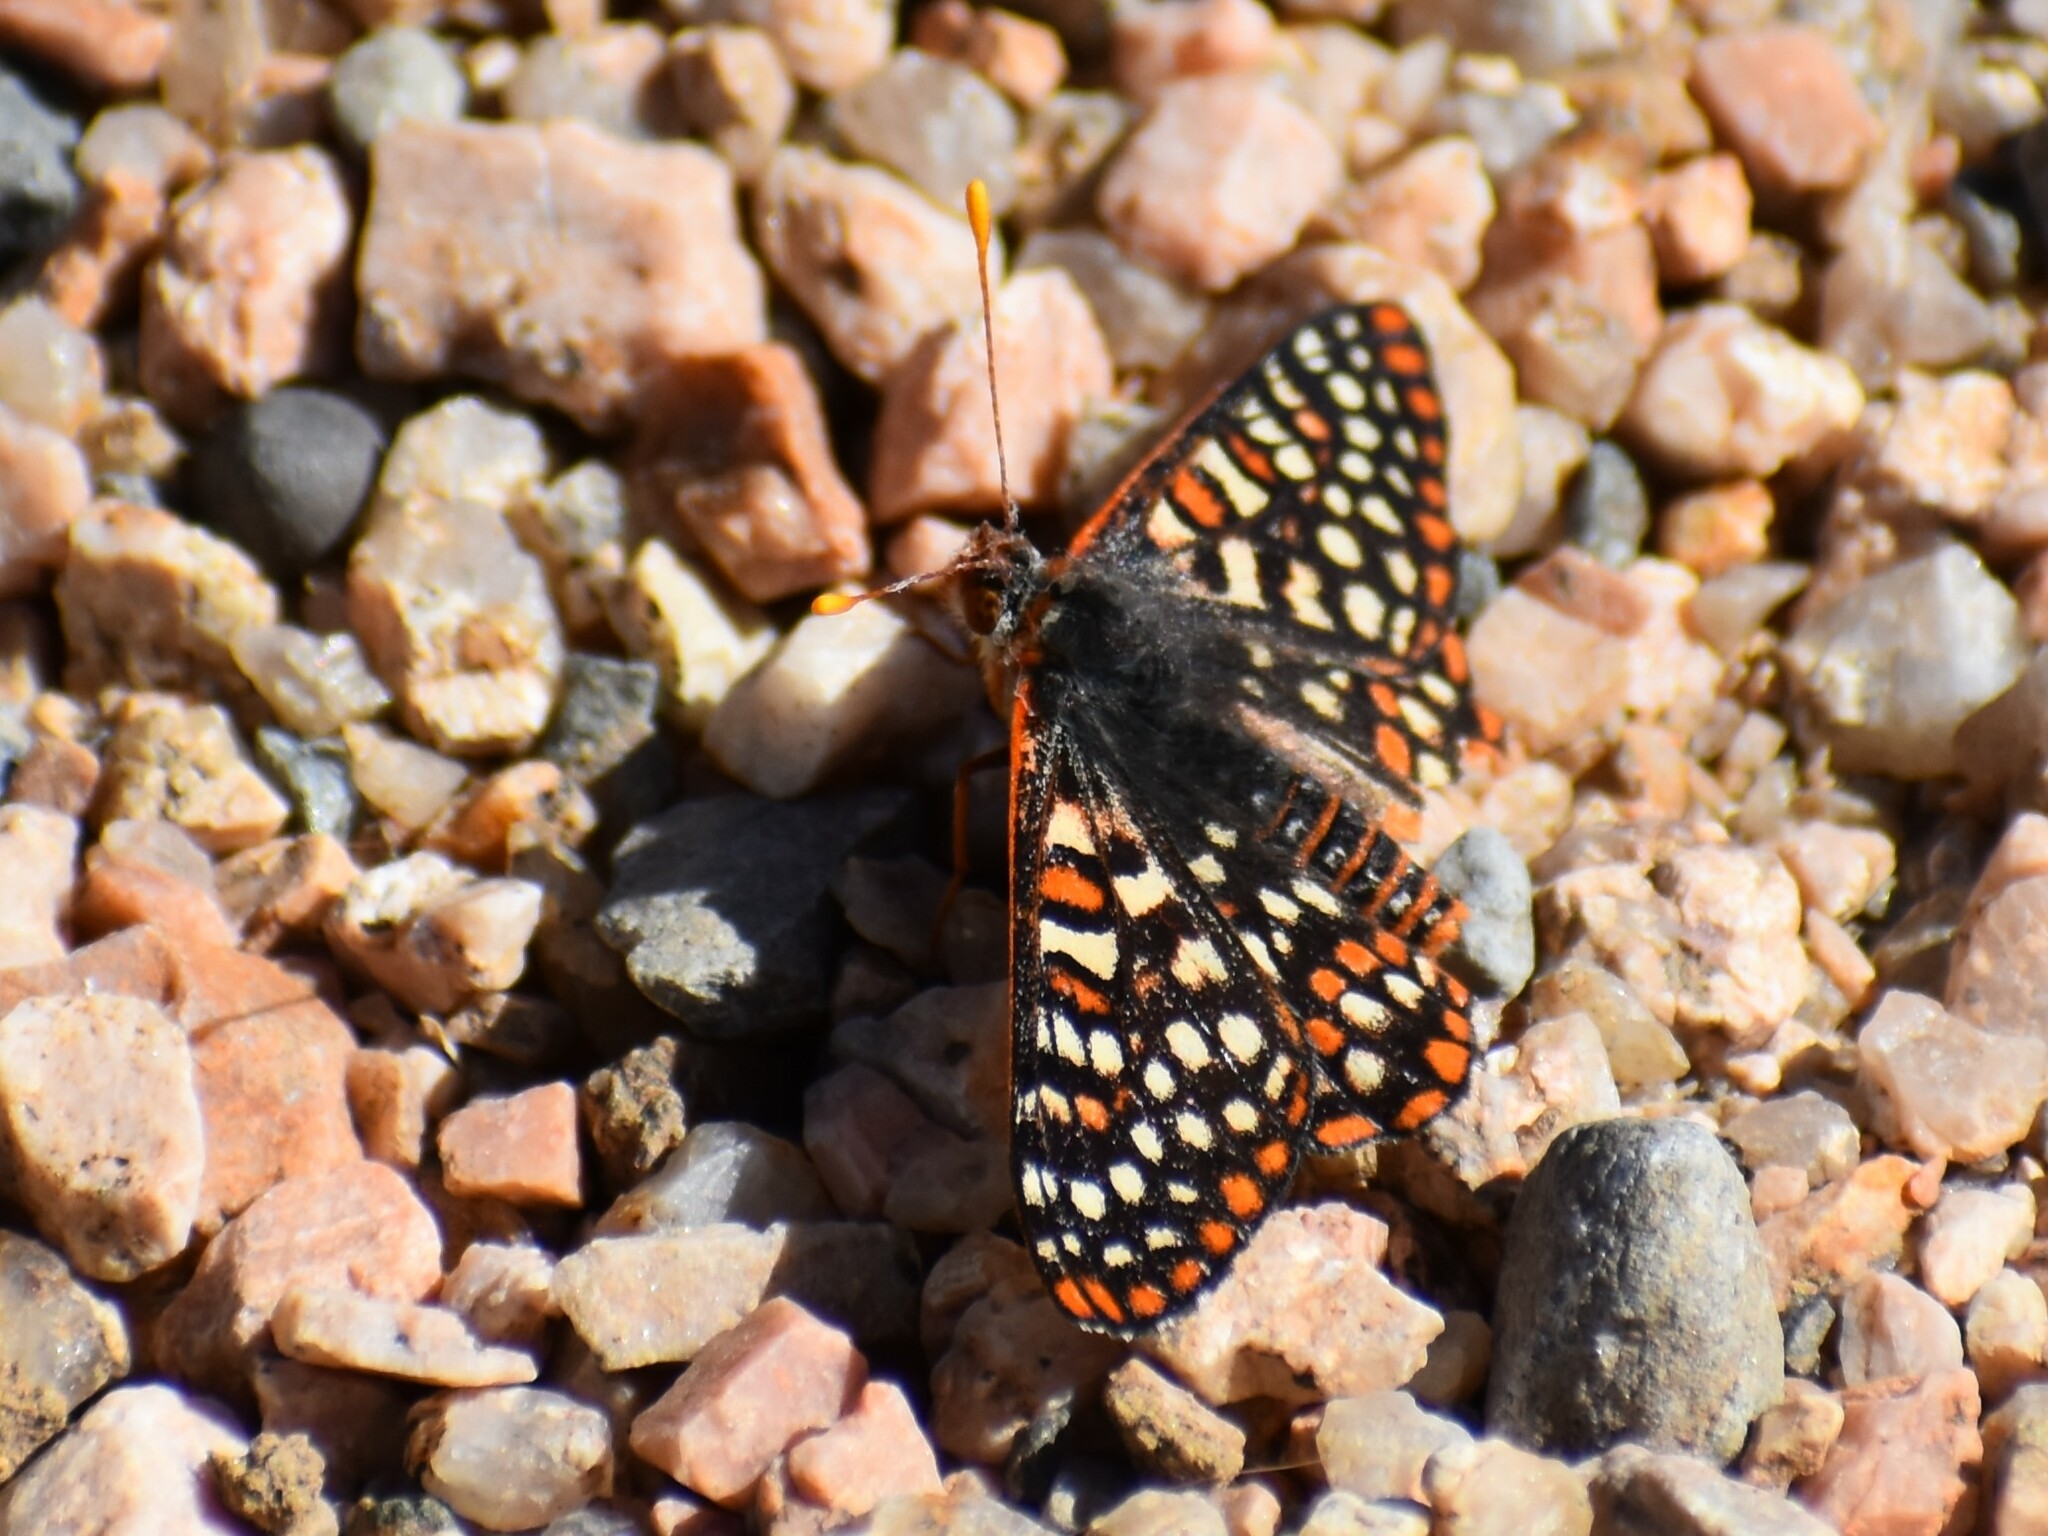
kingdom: Animalia
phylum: Arthropoda
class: Insecta
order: Lepidoptera
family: Nymphalidae
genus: Occidryas
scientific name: Occidryas chalcedona
